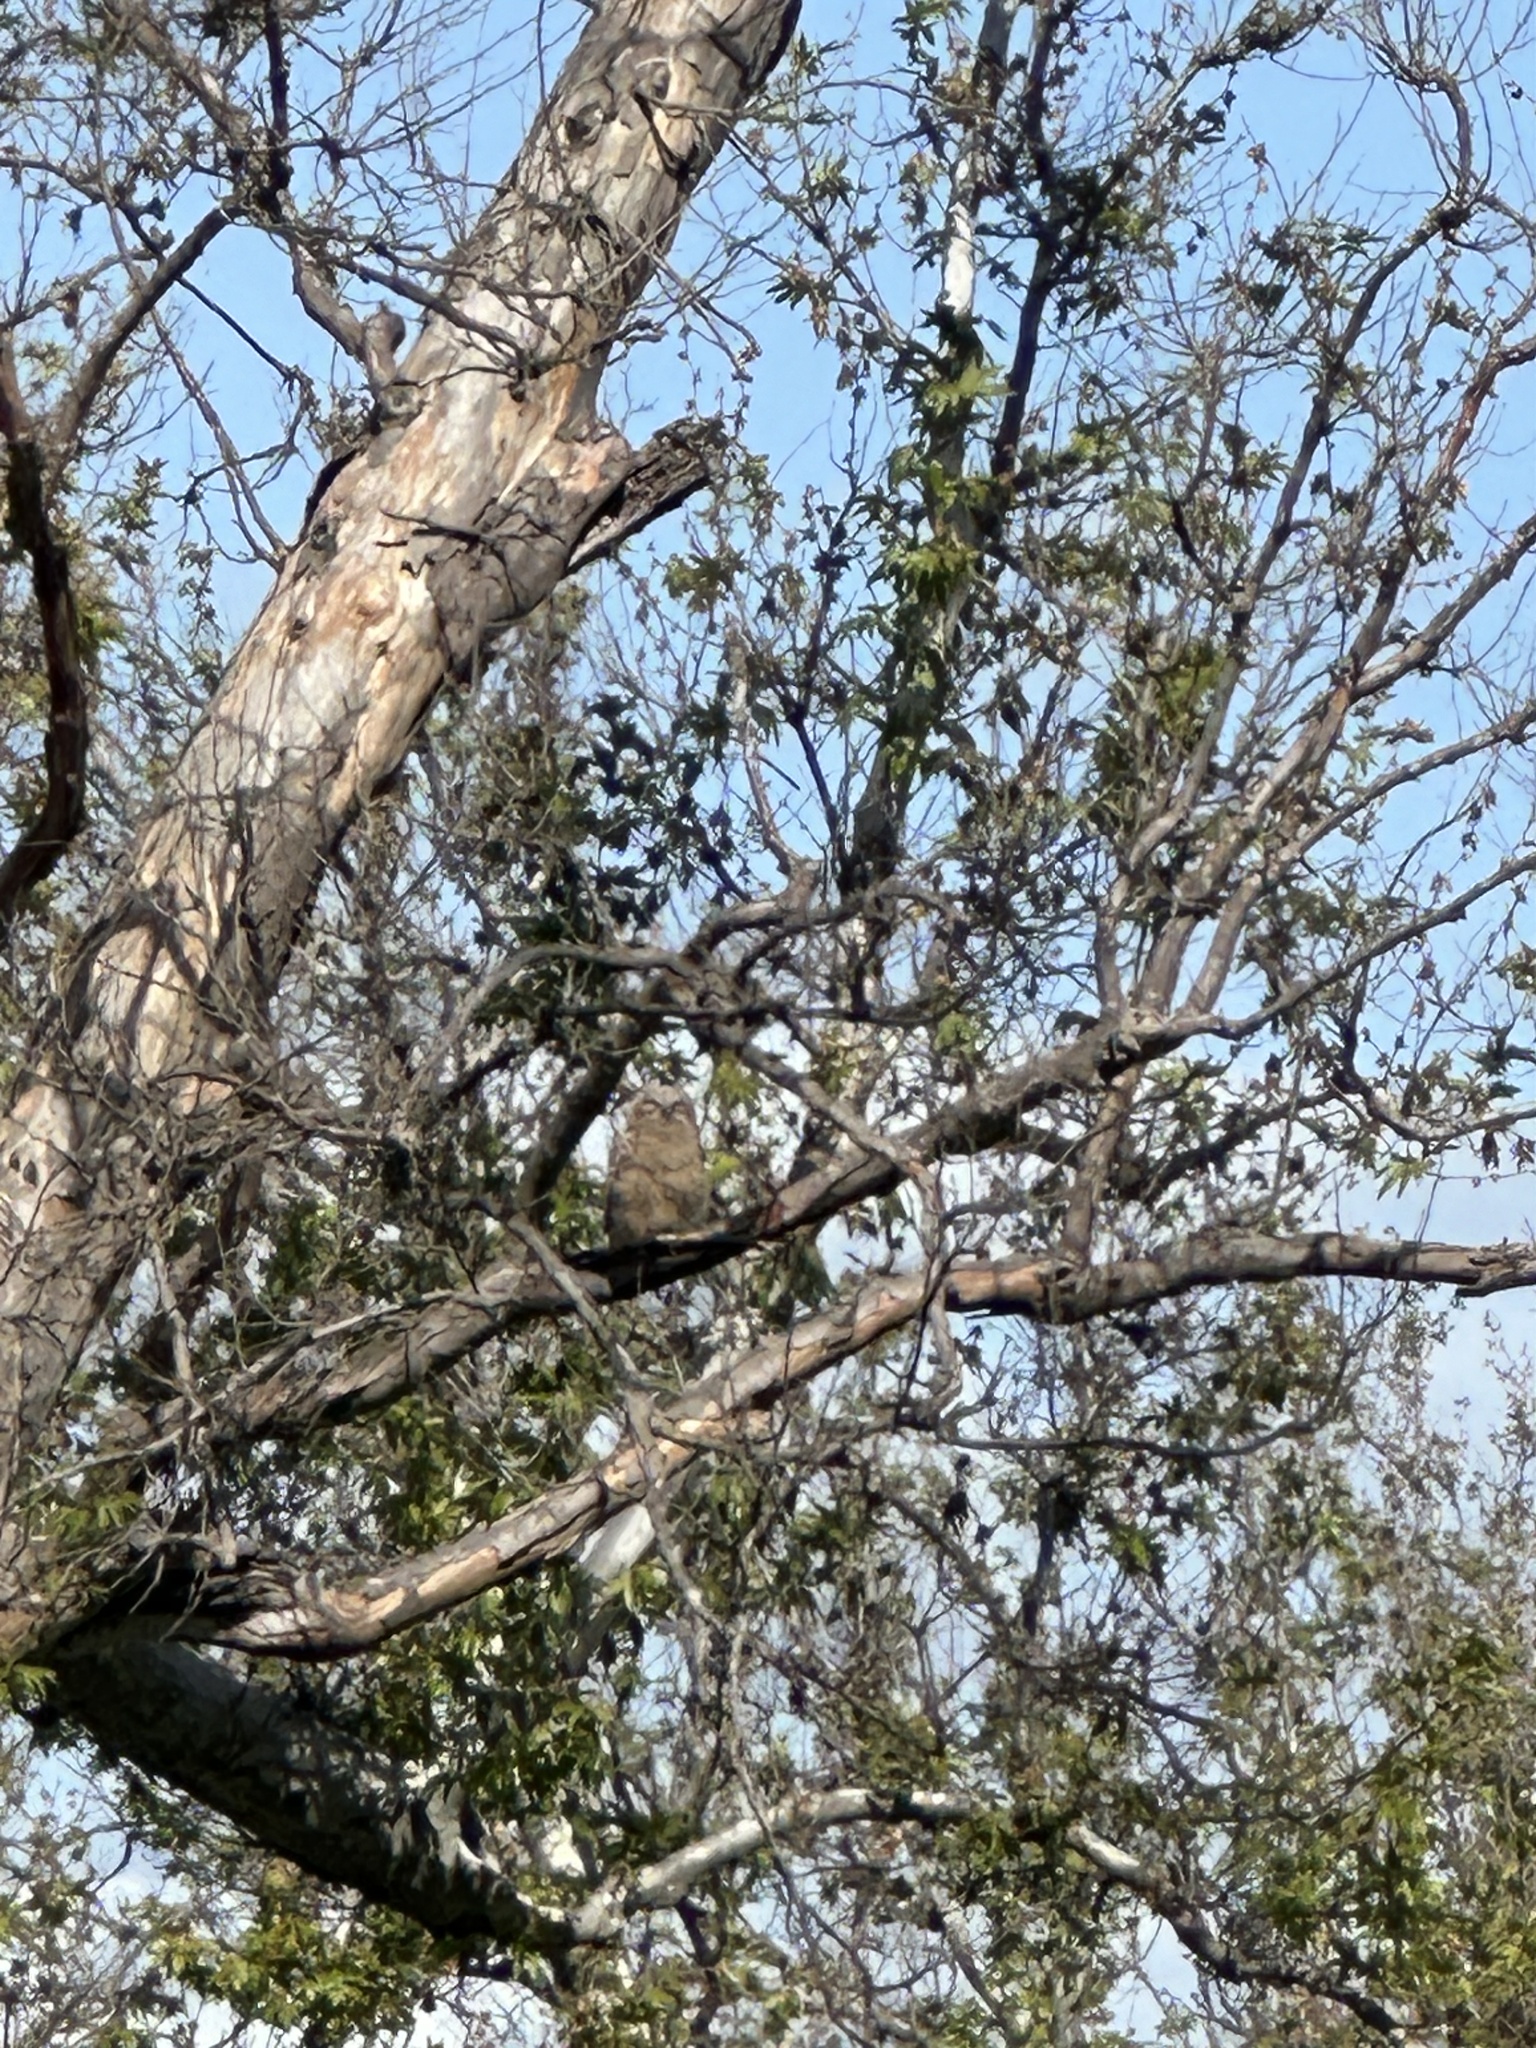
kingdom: Animalia
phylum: Chordata
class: Aves
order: Strigiformes
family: Strigidae
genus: Bubo
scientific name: Bubo virginianus
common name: Great horned owl
